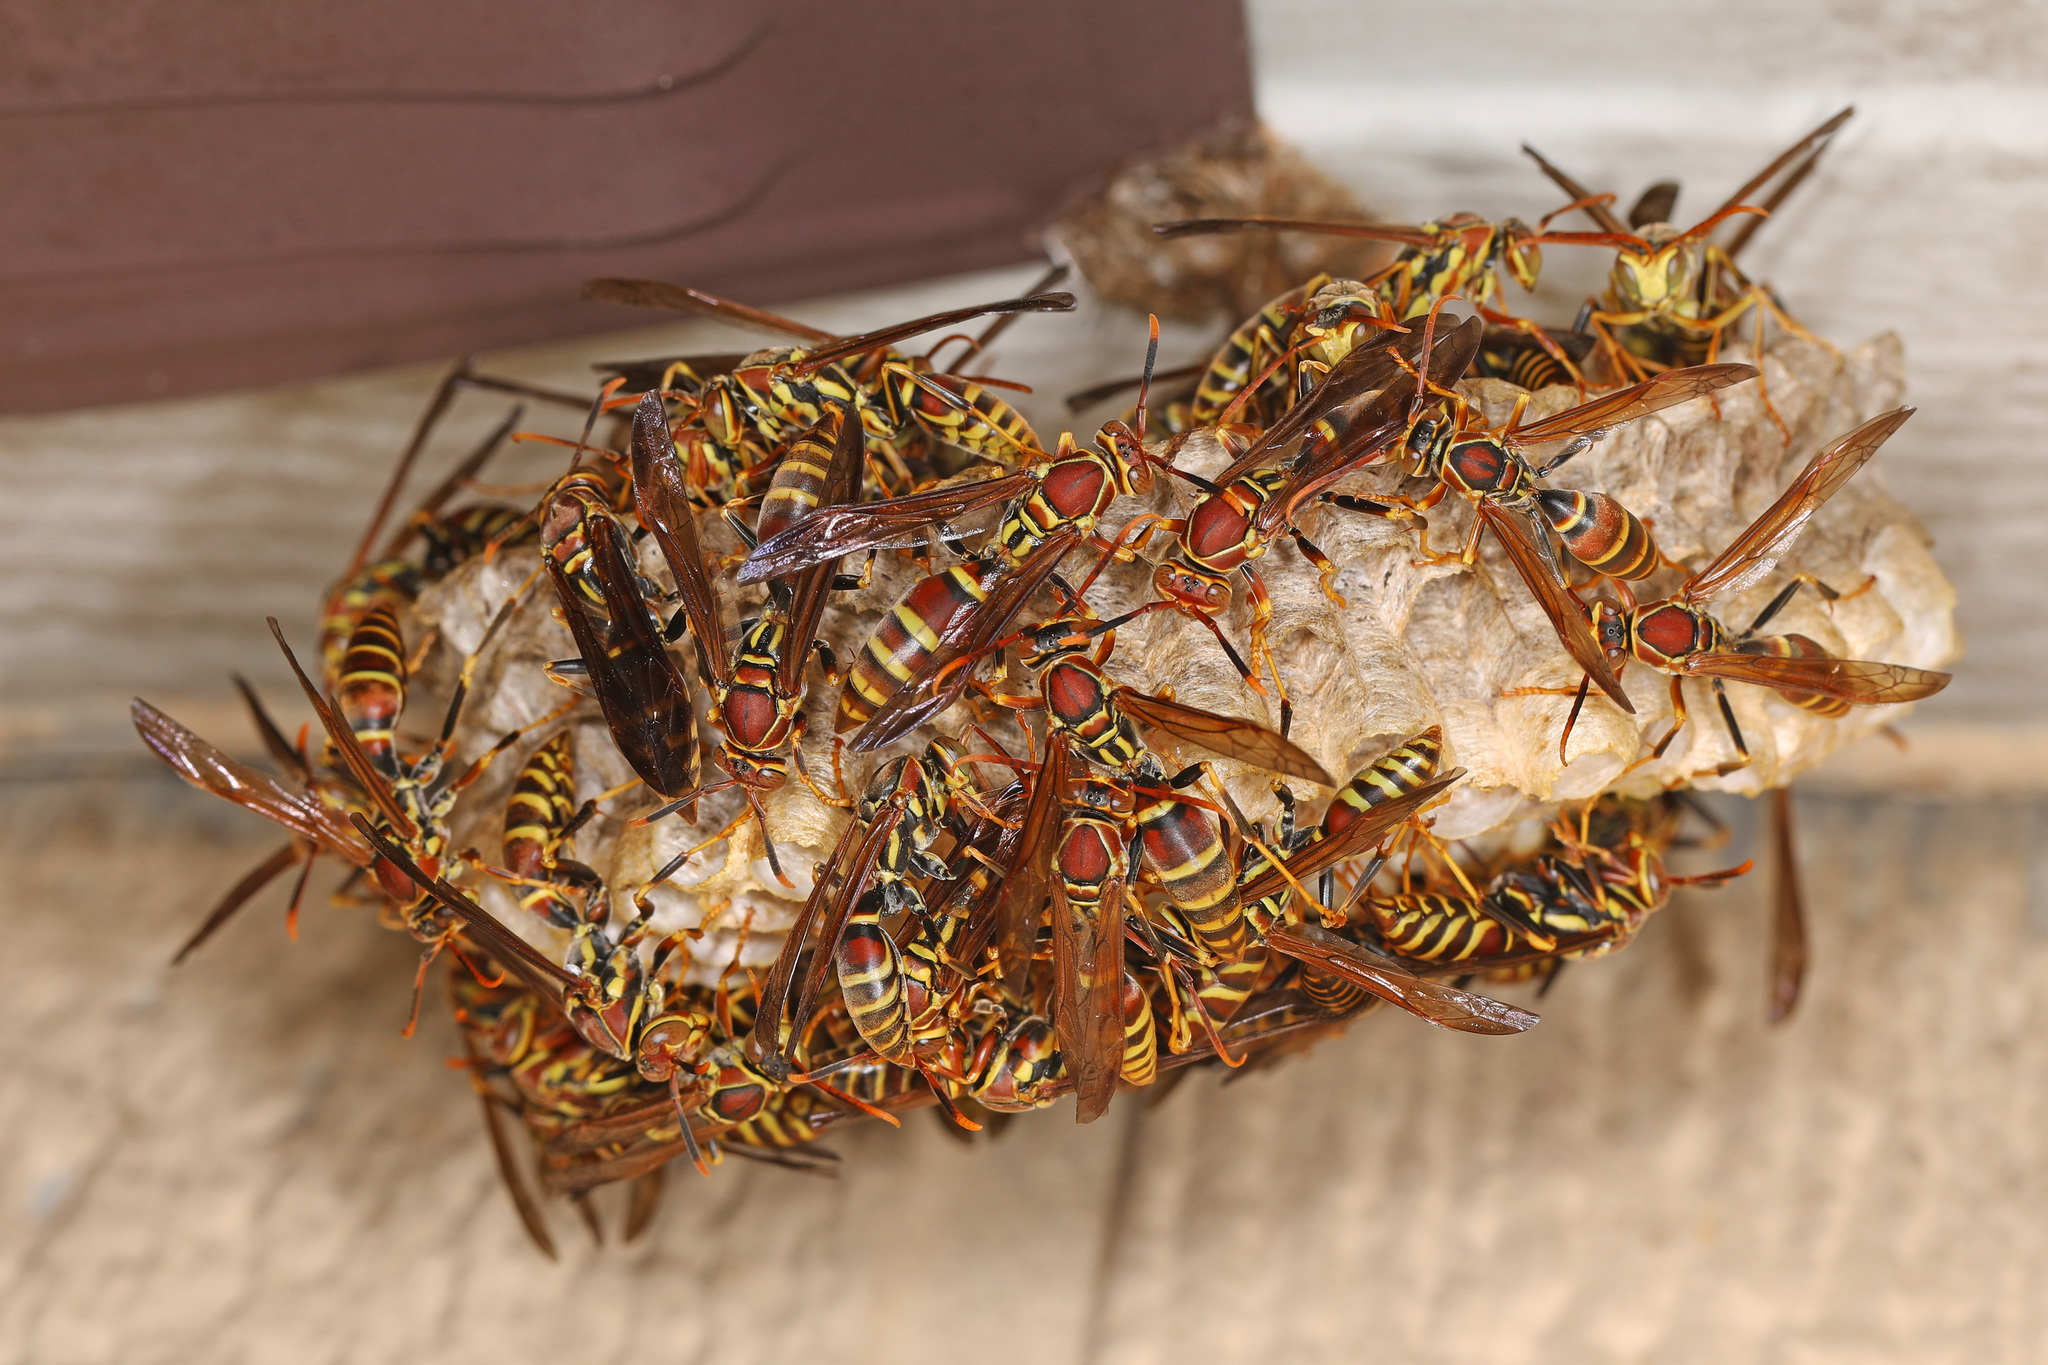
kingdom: Animalia
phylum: Arthropoda
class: Insecta
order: Hymenoptera
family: Eumenidae
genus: Polistes
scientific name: Polistes exclamans
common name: Paper wasp
